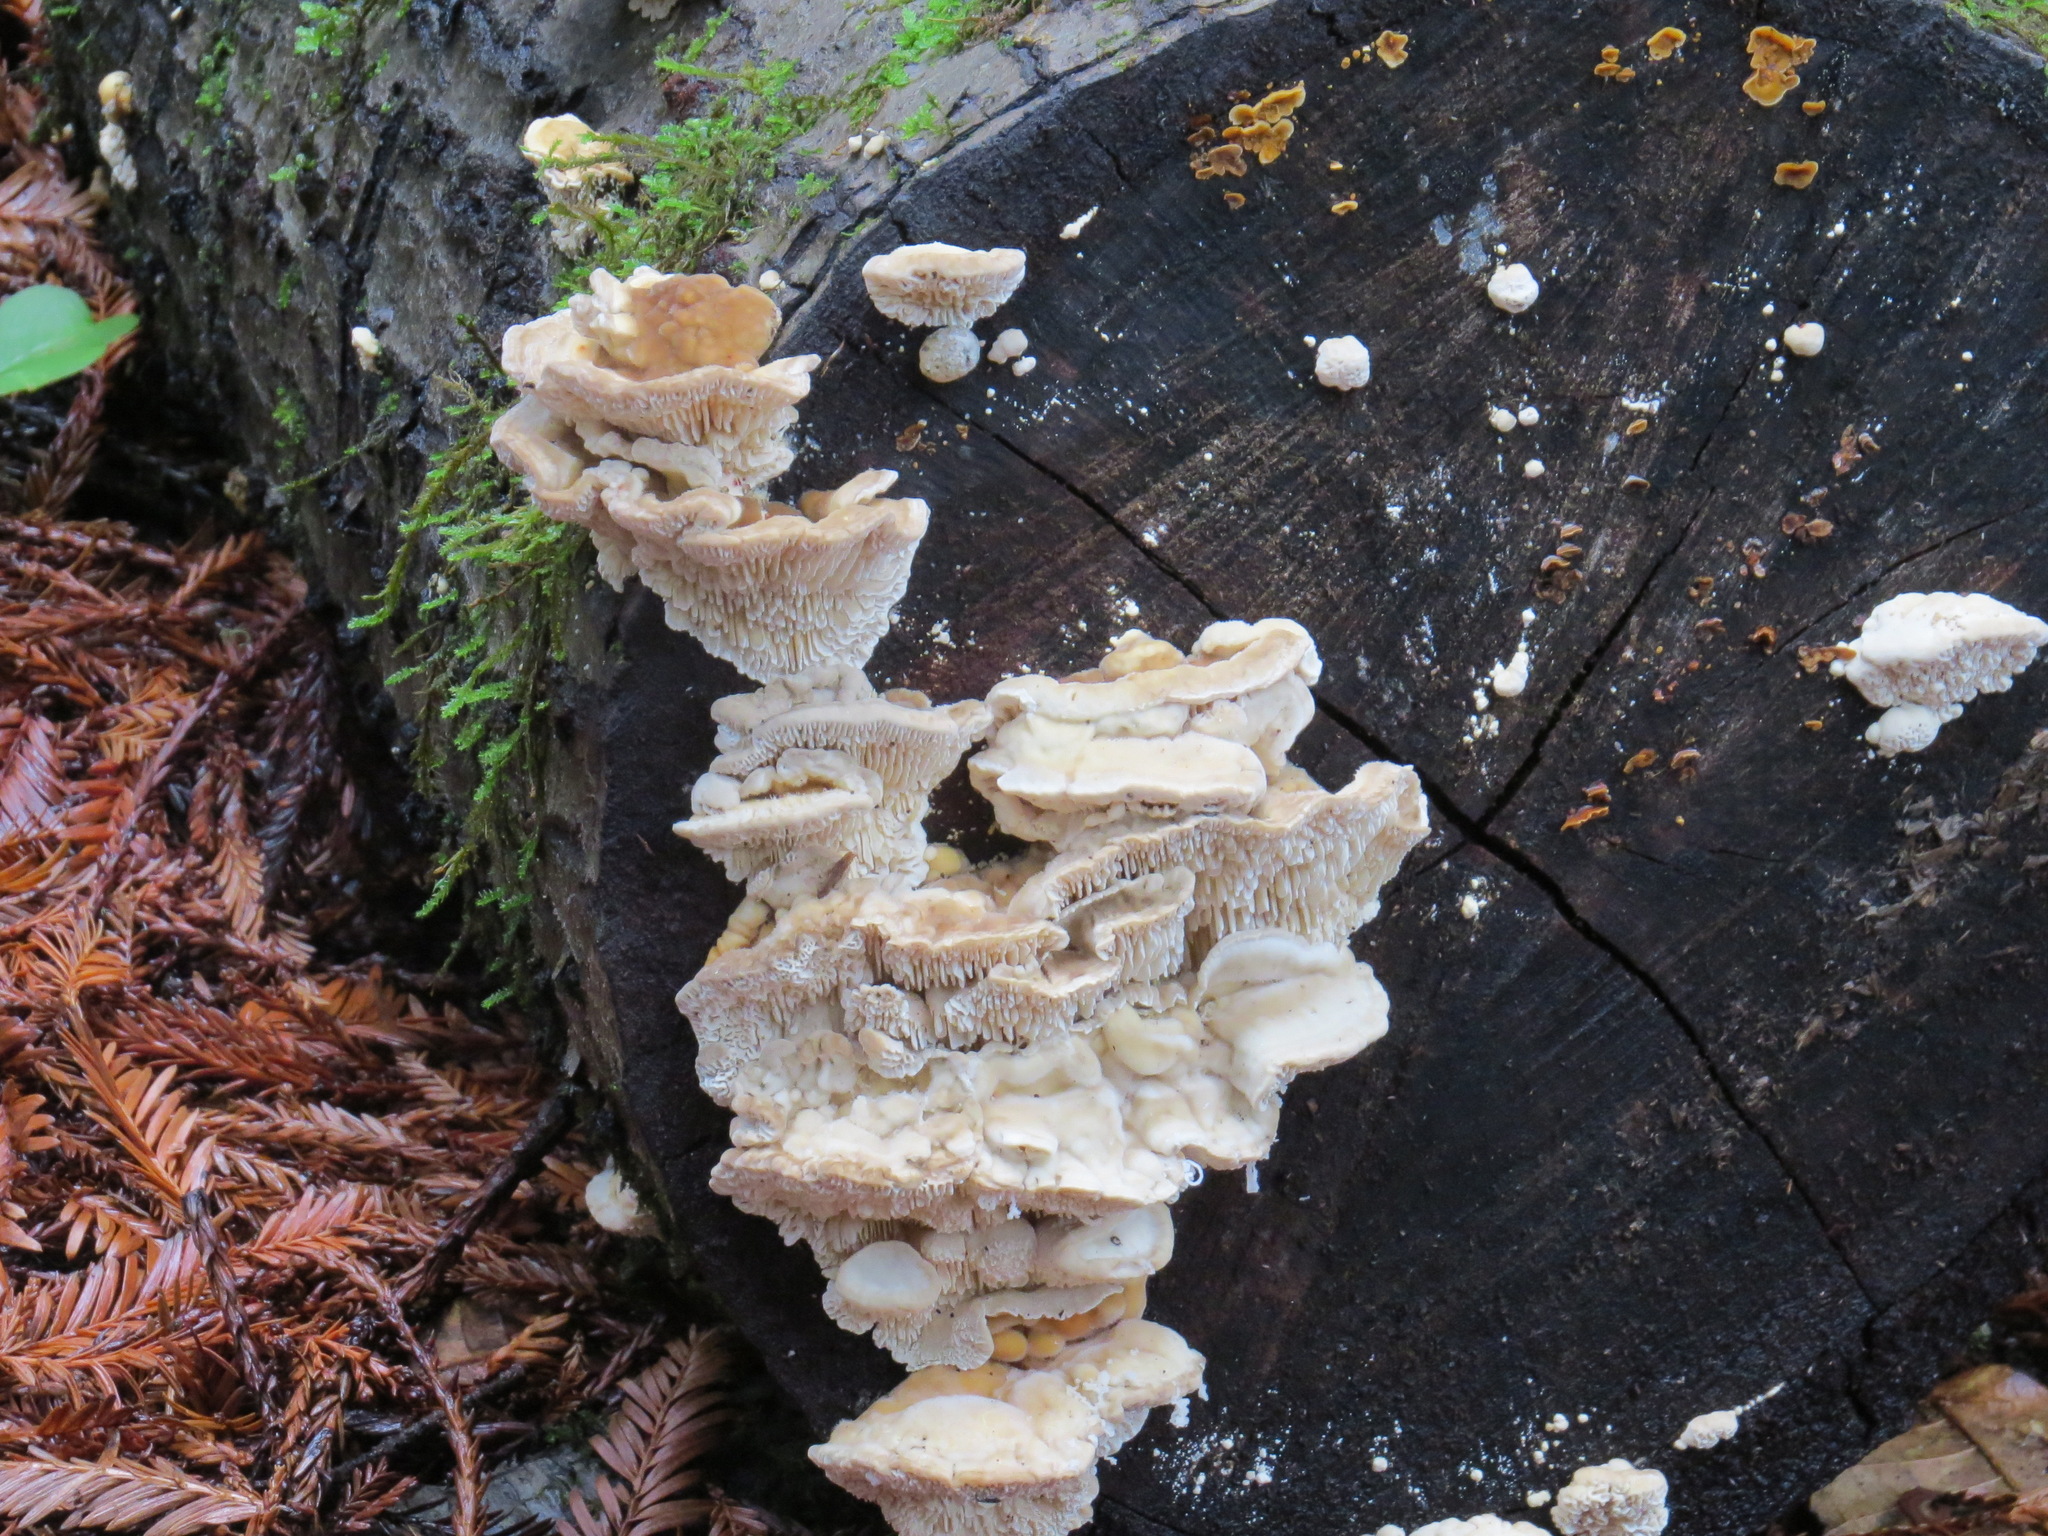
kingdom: Fungi
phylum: Basidiomycota
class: Agaricomycetes
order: Polyporales
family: Polyporaceae
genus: Lenzites
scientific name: Lenzites betulinus
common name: Birch mazegill
